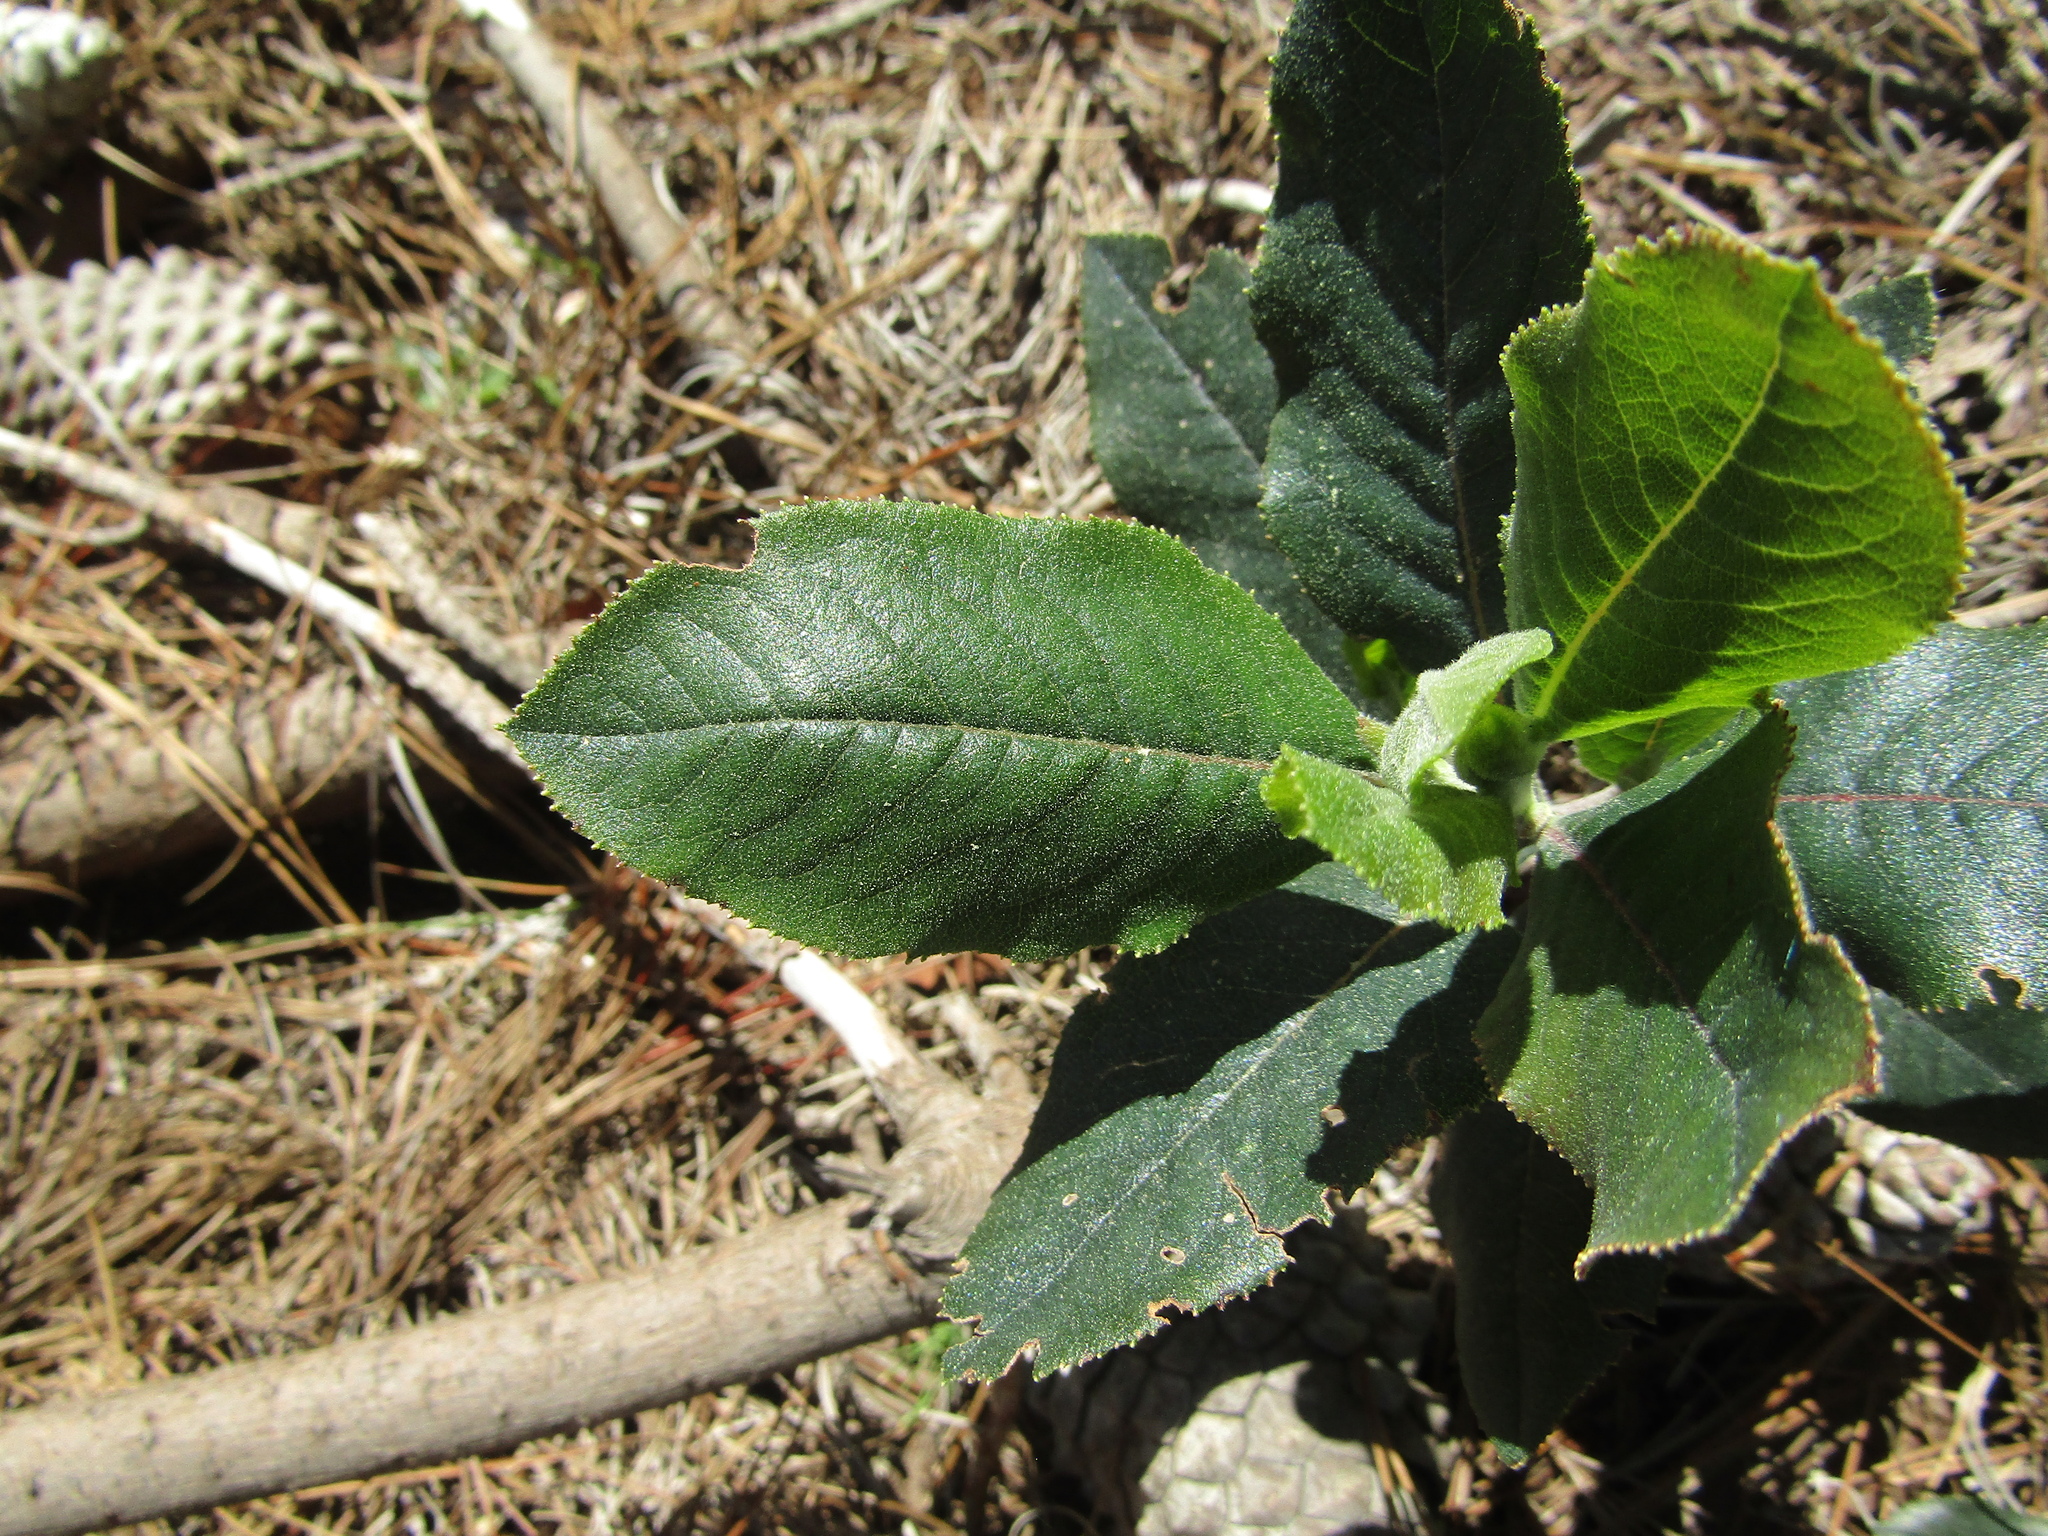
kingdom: Plantae
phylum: Tracheophyta
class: Magnoliopsida
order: Escalloniales
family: Escalloniaceae
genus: Escallonia
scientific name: Escallonia pulverulenta
